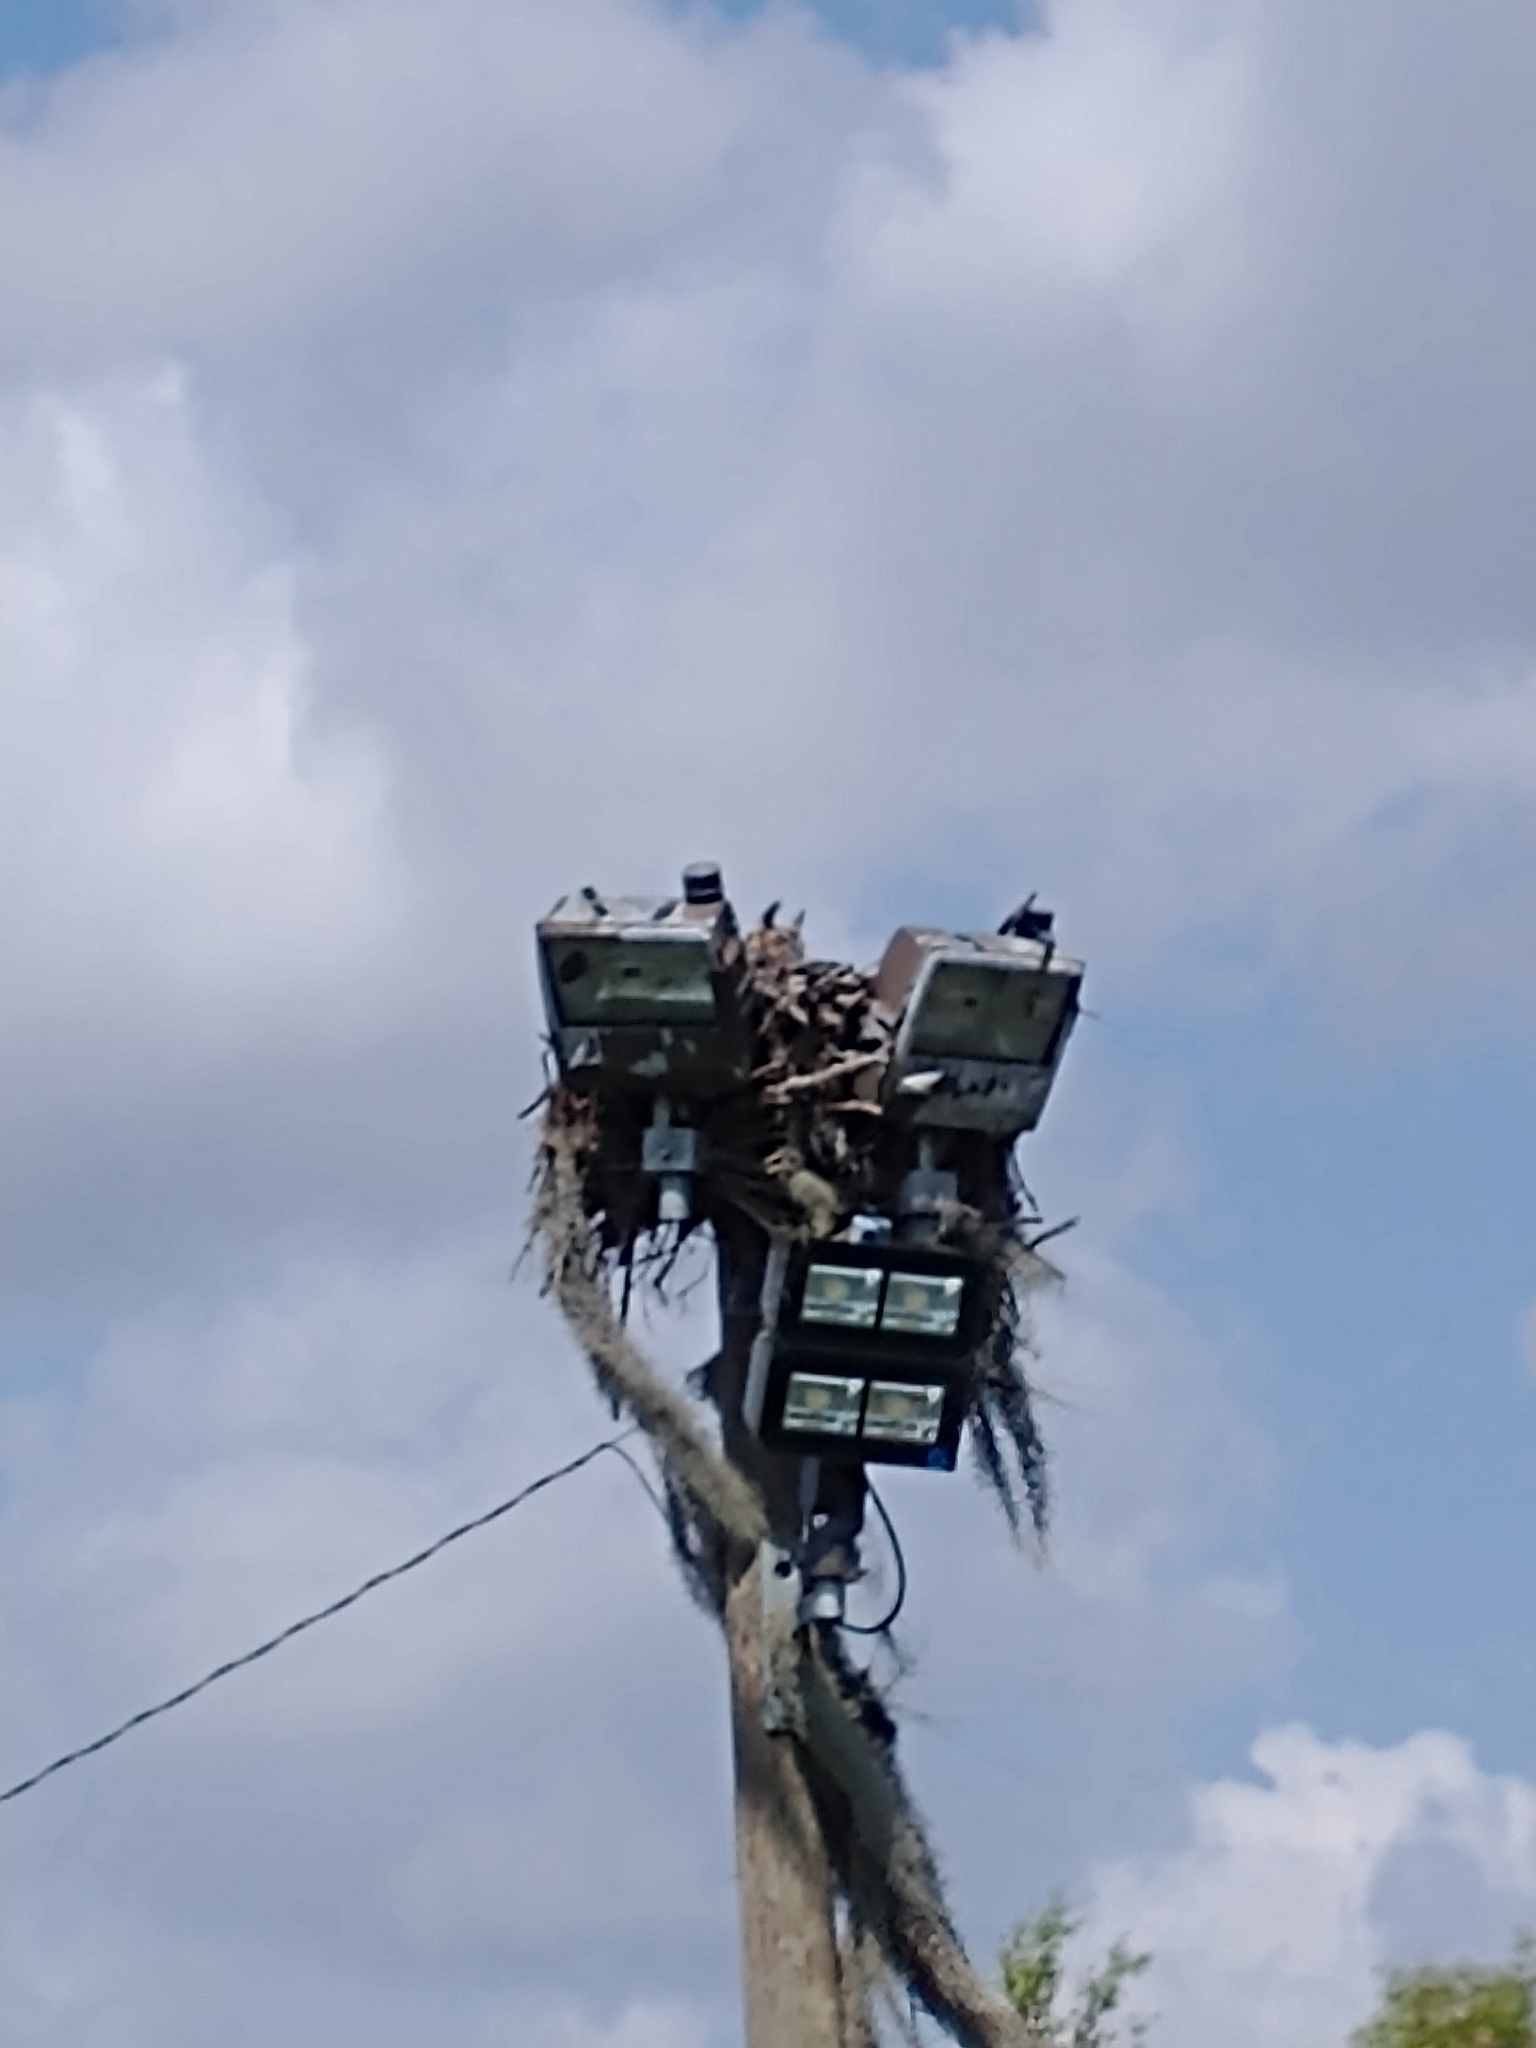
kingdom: Animalia
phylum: Chordata
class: Aves
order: Strigiformes
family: Strigidae
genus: Bubo
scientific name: Bubo virginianus
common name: Great horned owl
